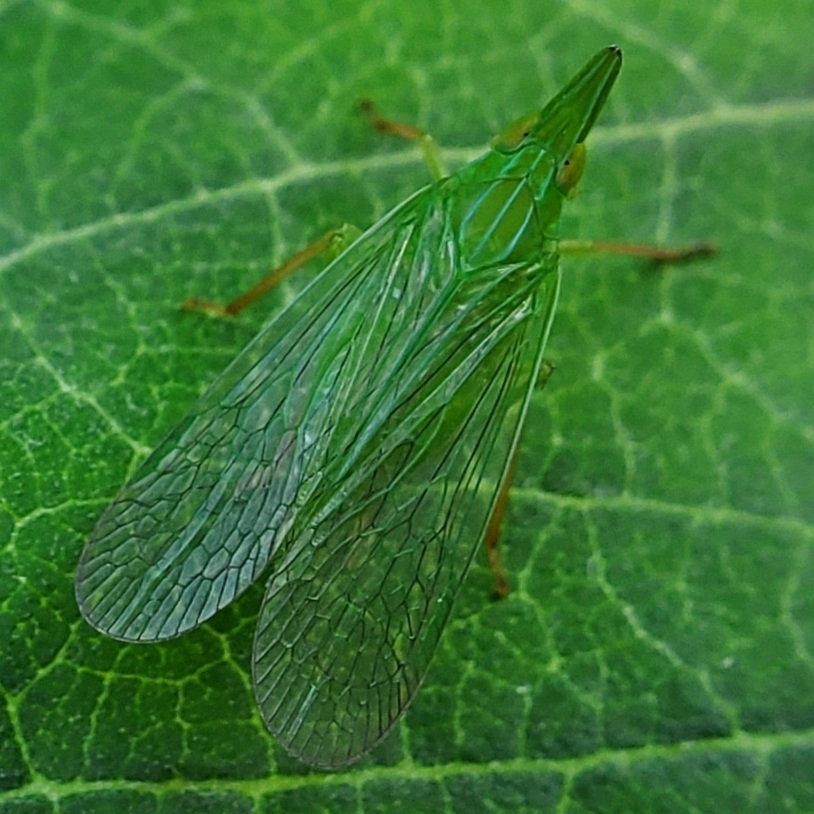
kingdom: Animalia
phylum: Arthropoda
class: Insecta
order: Hemiptera
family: Dictyopharidae
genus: Rhynchomitra
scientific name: Rhynchomitra microrhina
